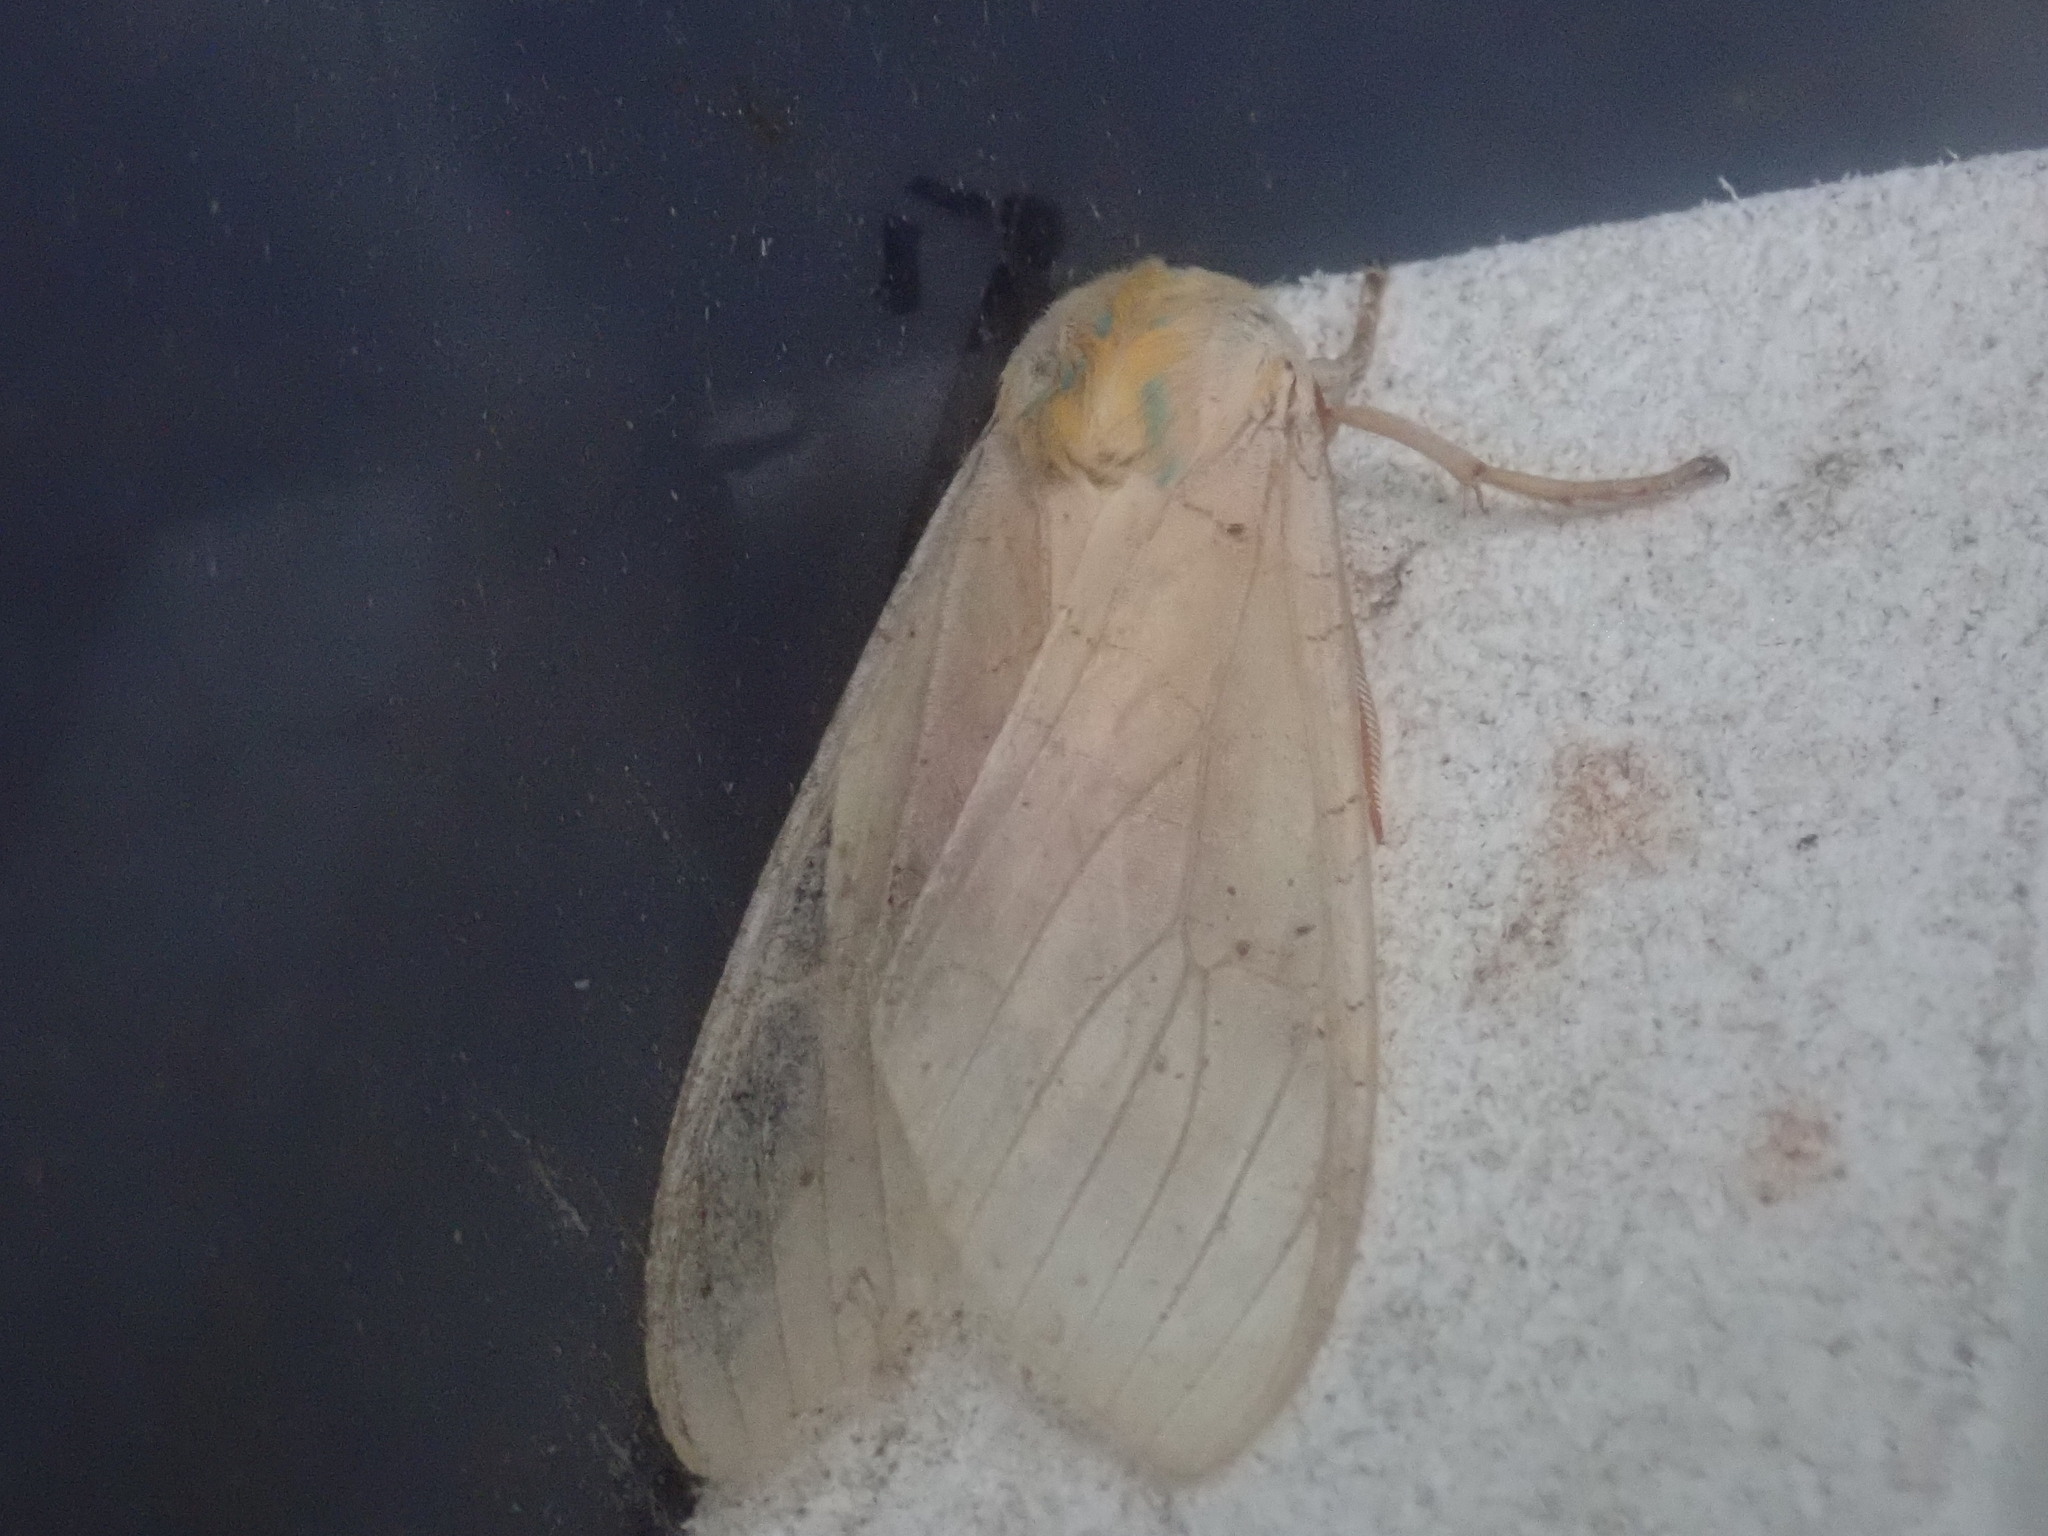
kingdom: Animalia
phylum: Arthropoda
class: Insecta
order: Lepidoptera
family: Erebidae
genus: Halysidota
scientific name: Halysidota tessellaris
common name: Banded tussock moth
